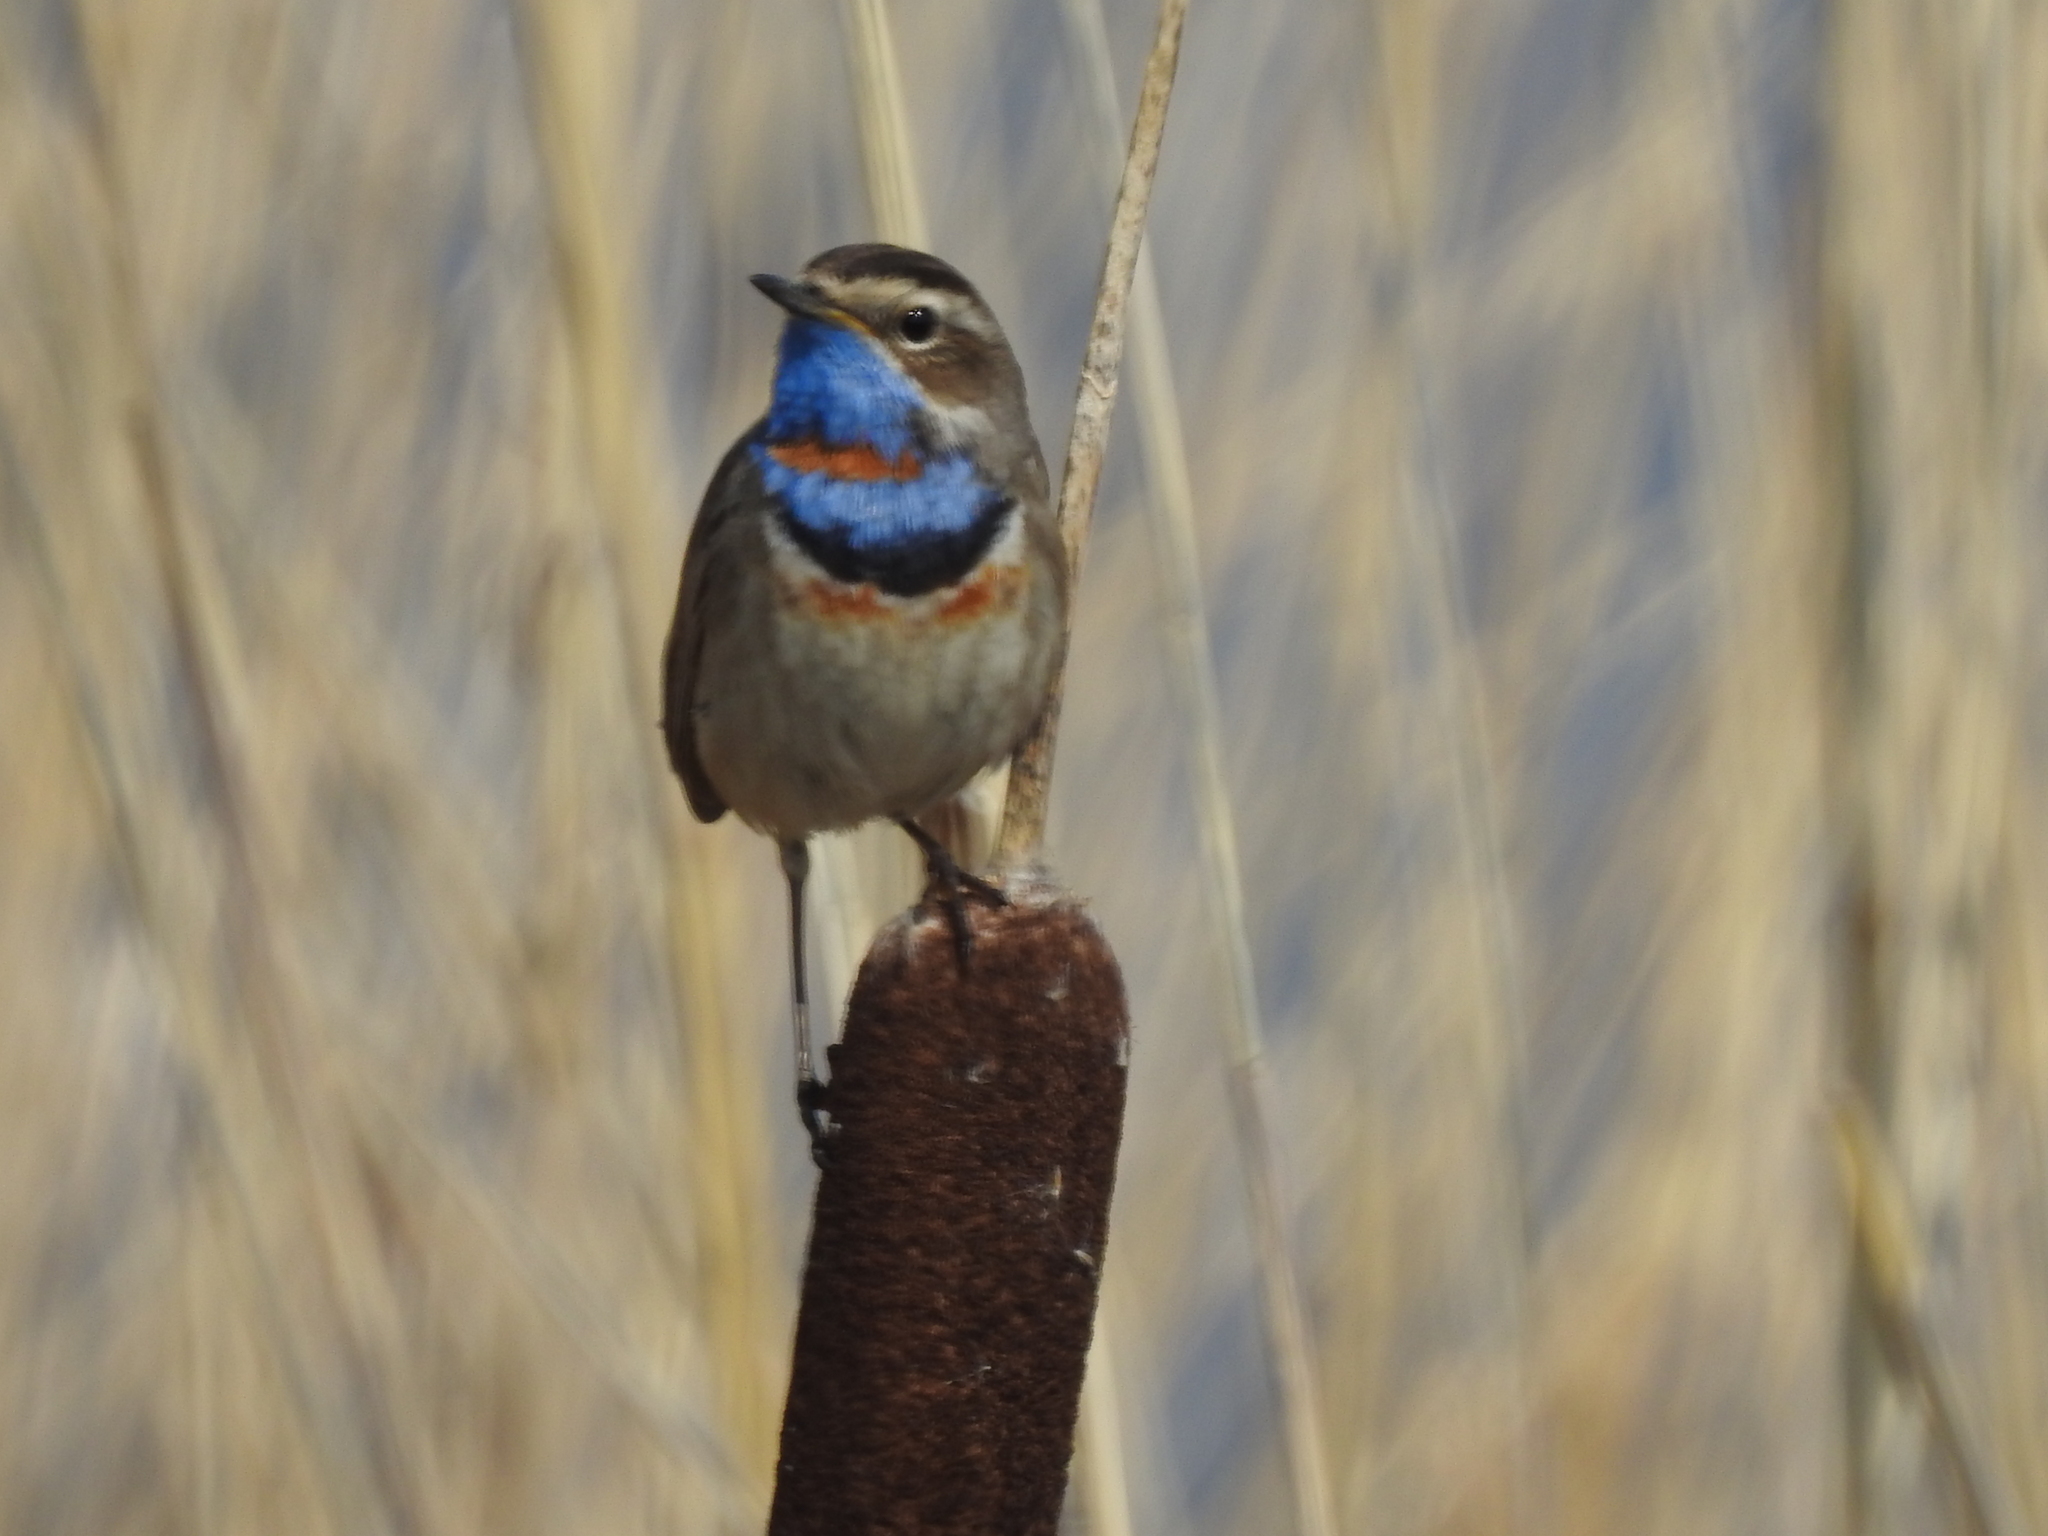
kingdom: Animalia
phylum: Chordata
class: Aves
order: Passeriformes
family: Muscicapidae
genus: Luscinia
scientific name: Luscinia svecica
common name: Bluethroat
